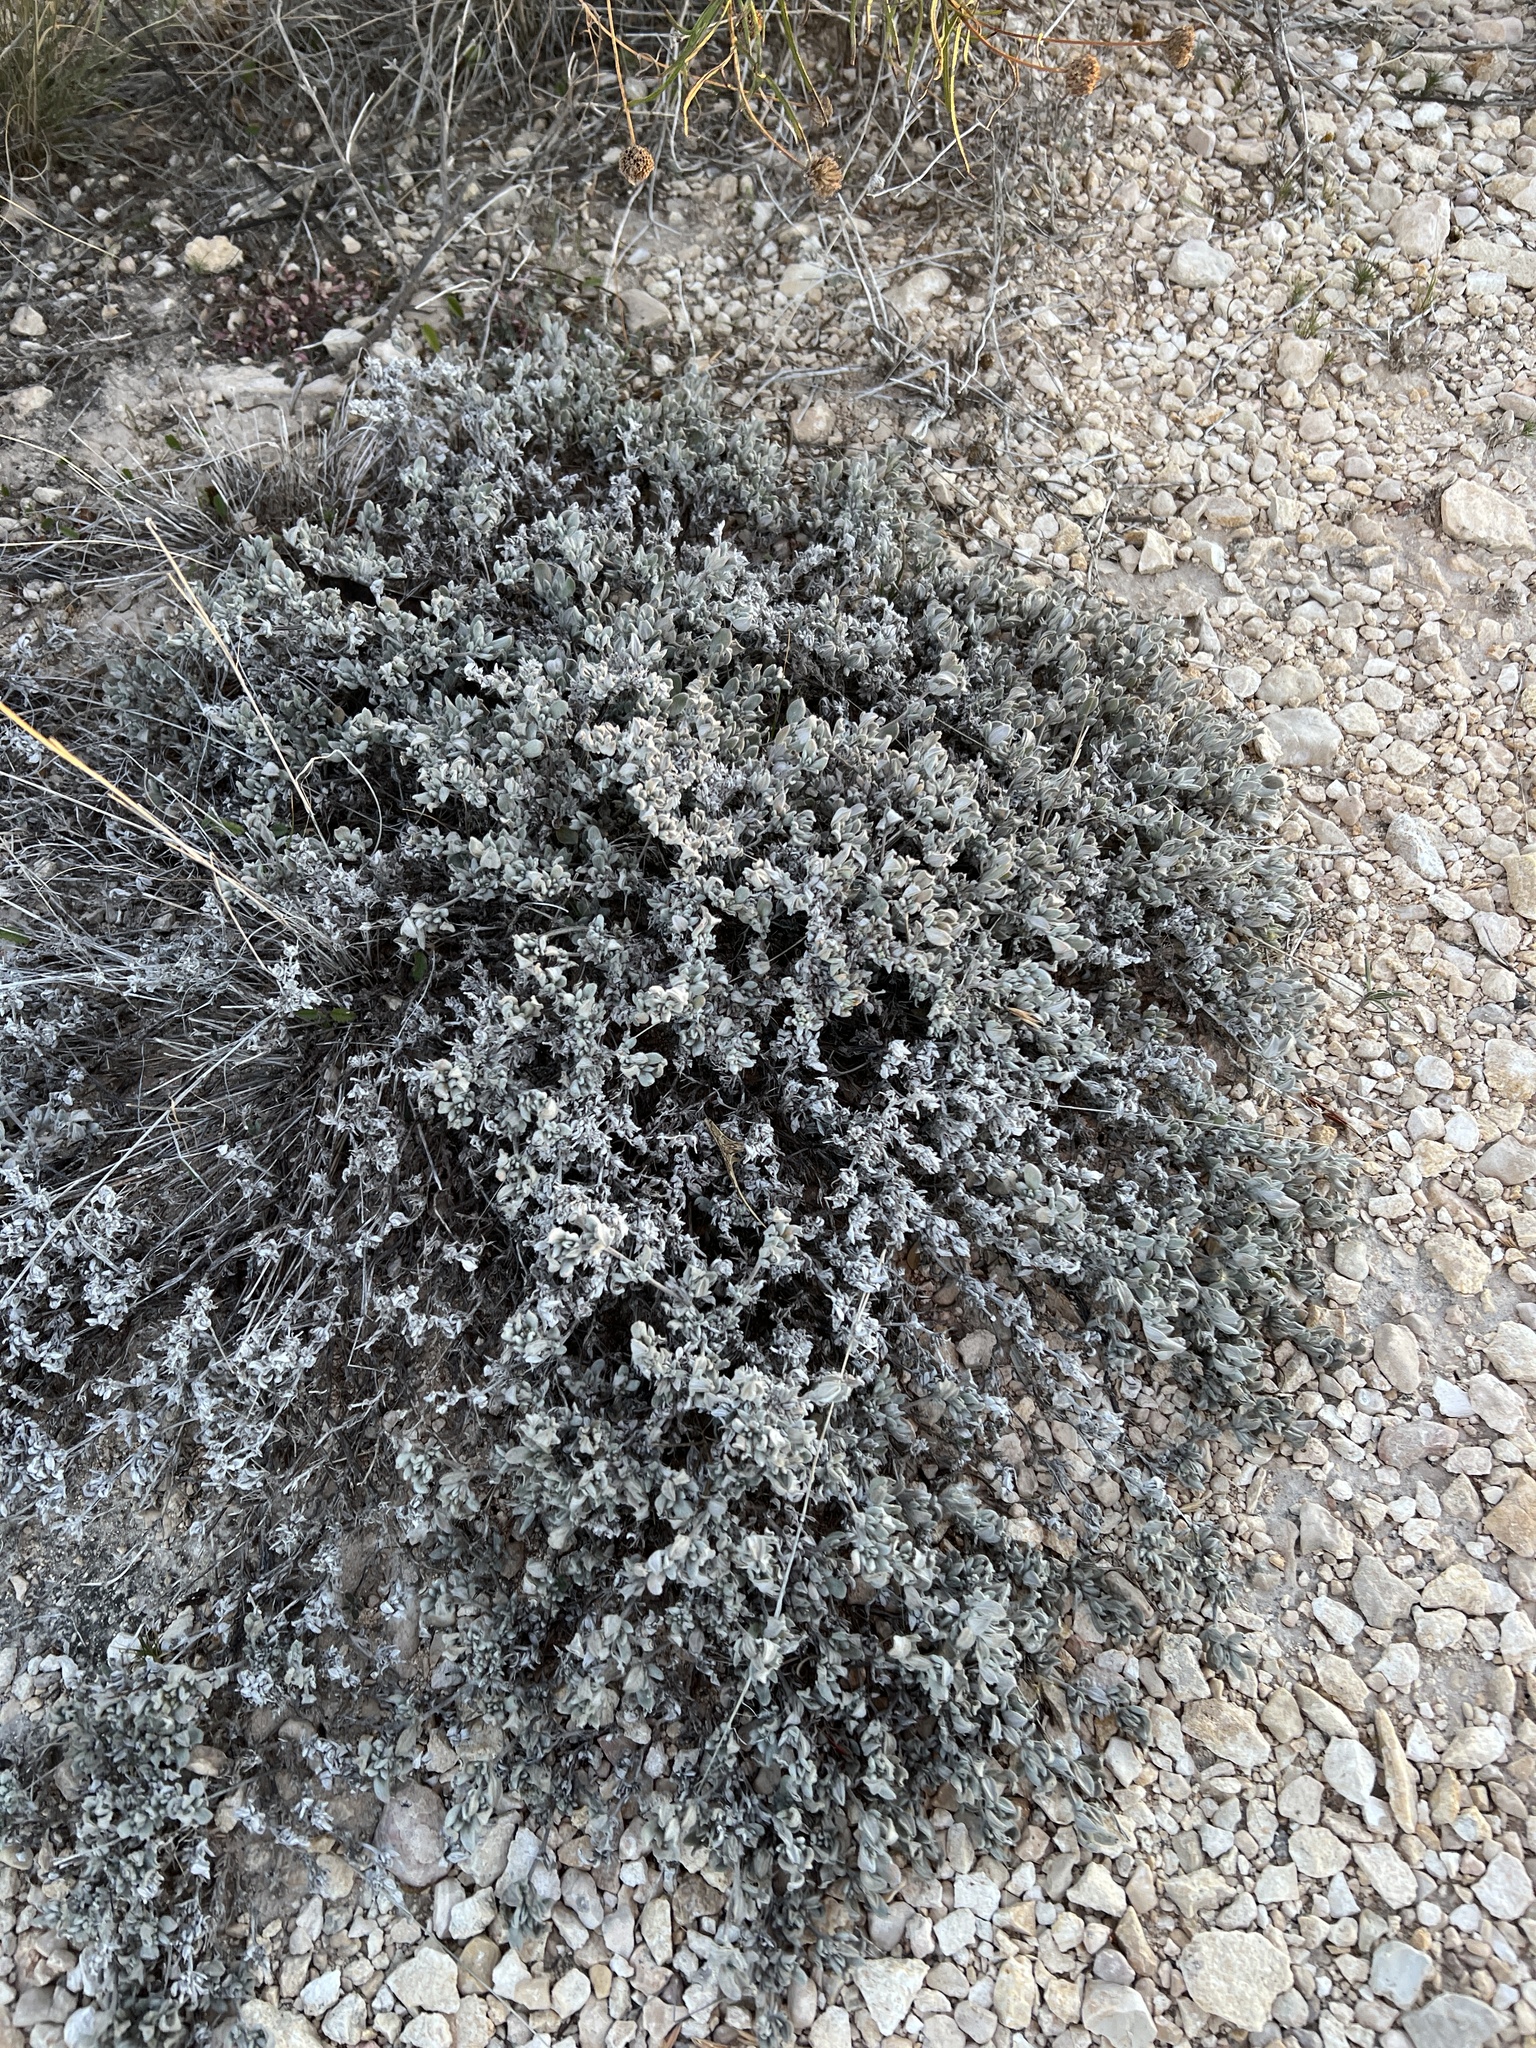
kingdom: Plantae
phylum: Tracheophyta
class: Magnoliopsida
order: Boraginales
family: Ehretiaceae
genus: Tiquilia
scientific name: Tiquilia canescens
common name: Hairy tiquilia
